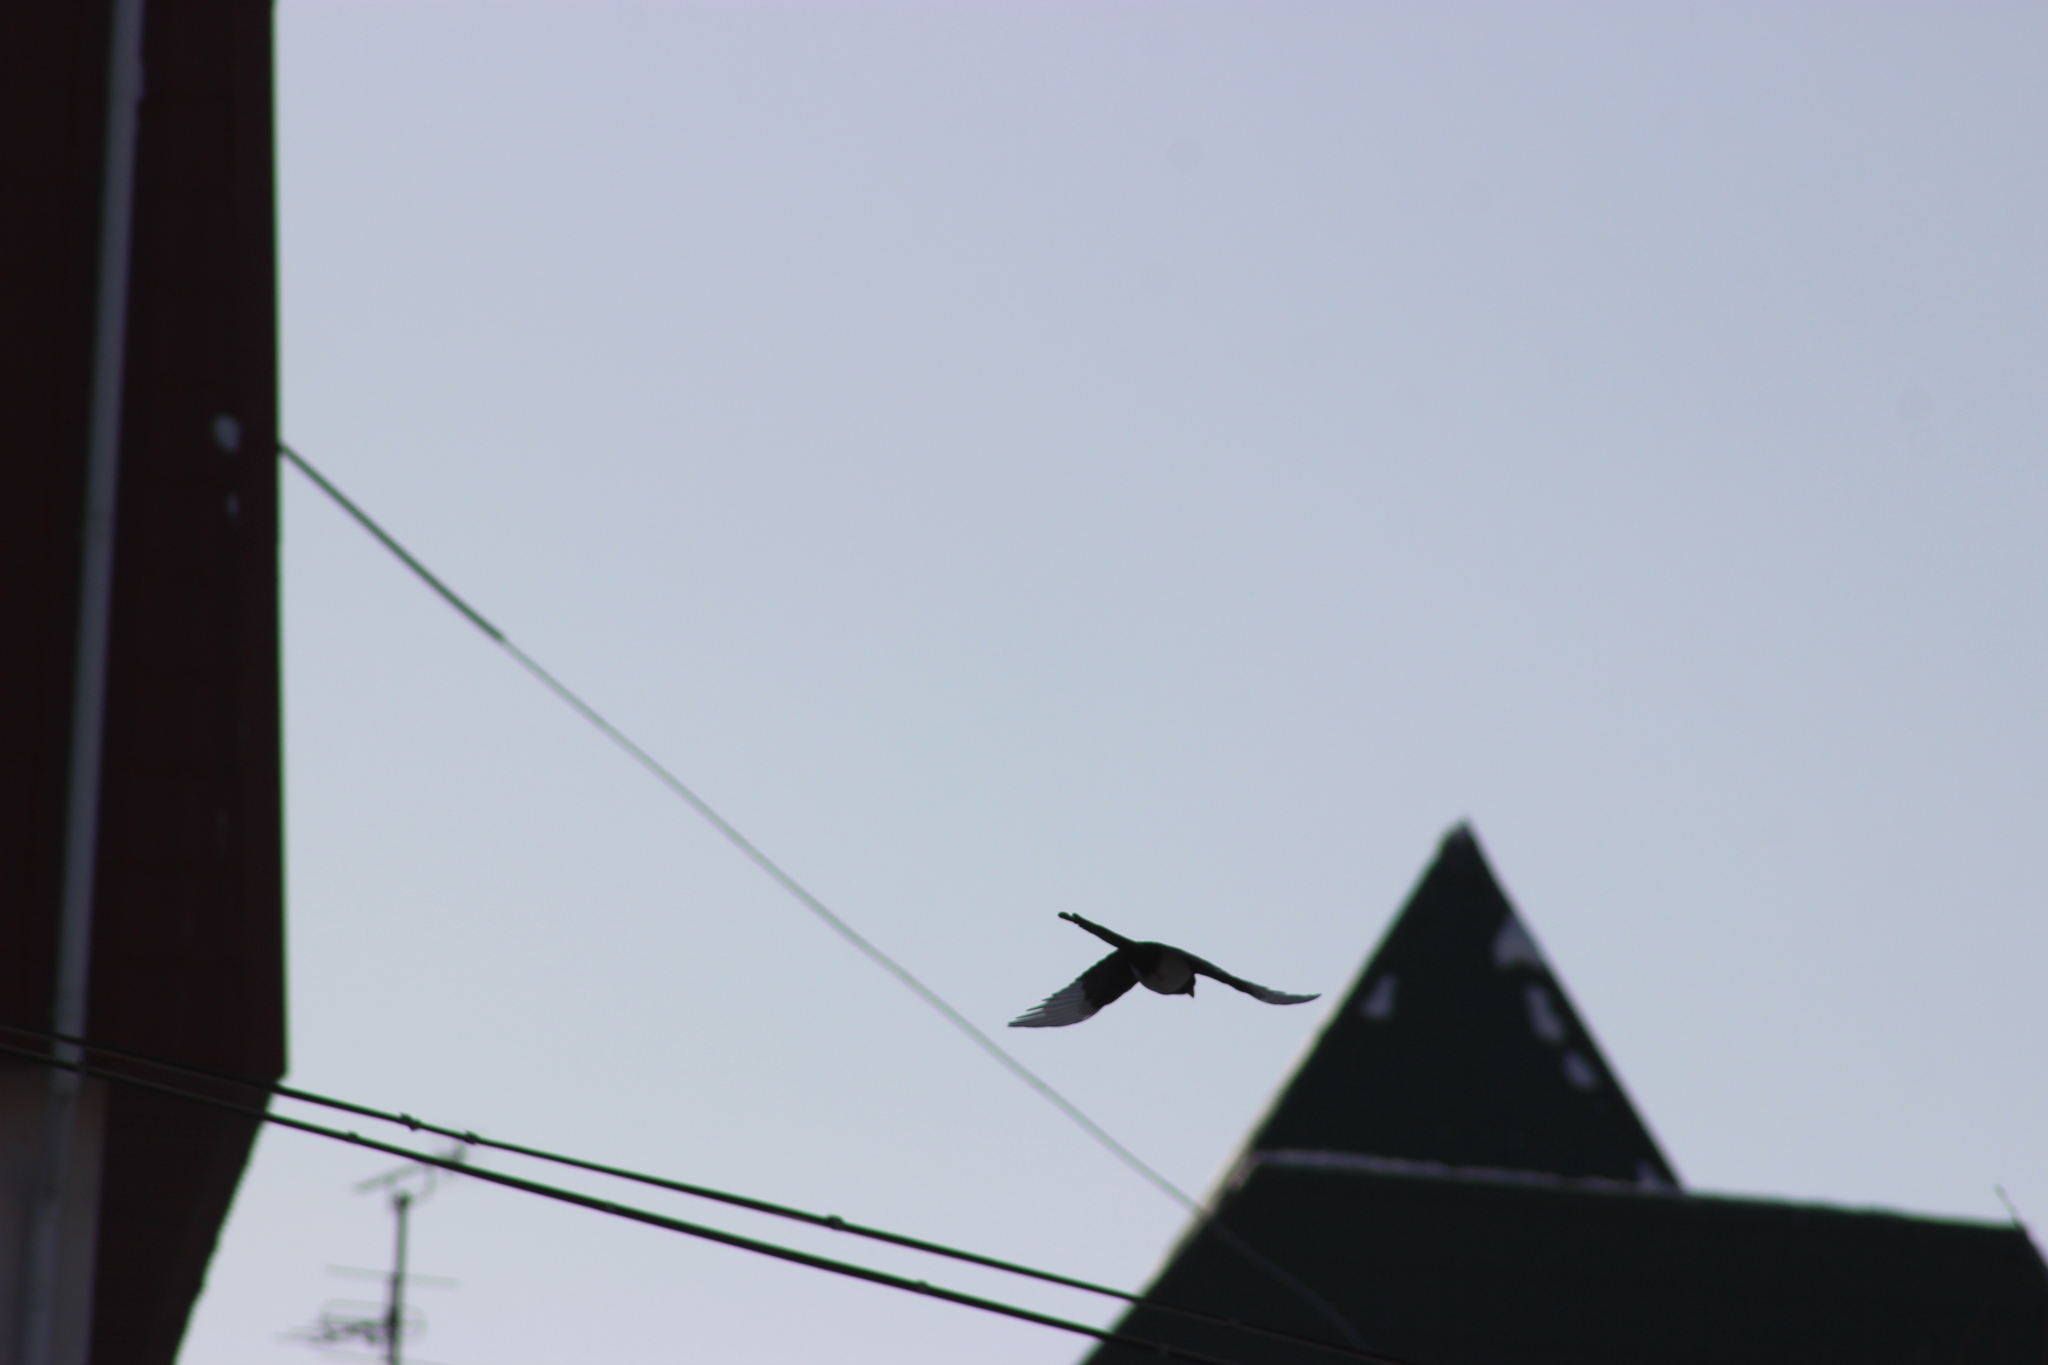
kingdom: Animalia
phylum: Chordata
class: Aves
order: Passeriformes
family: Corvidae
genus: Pica
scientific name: Pica pica
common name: Eurasian magpie
